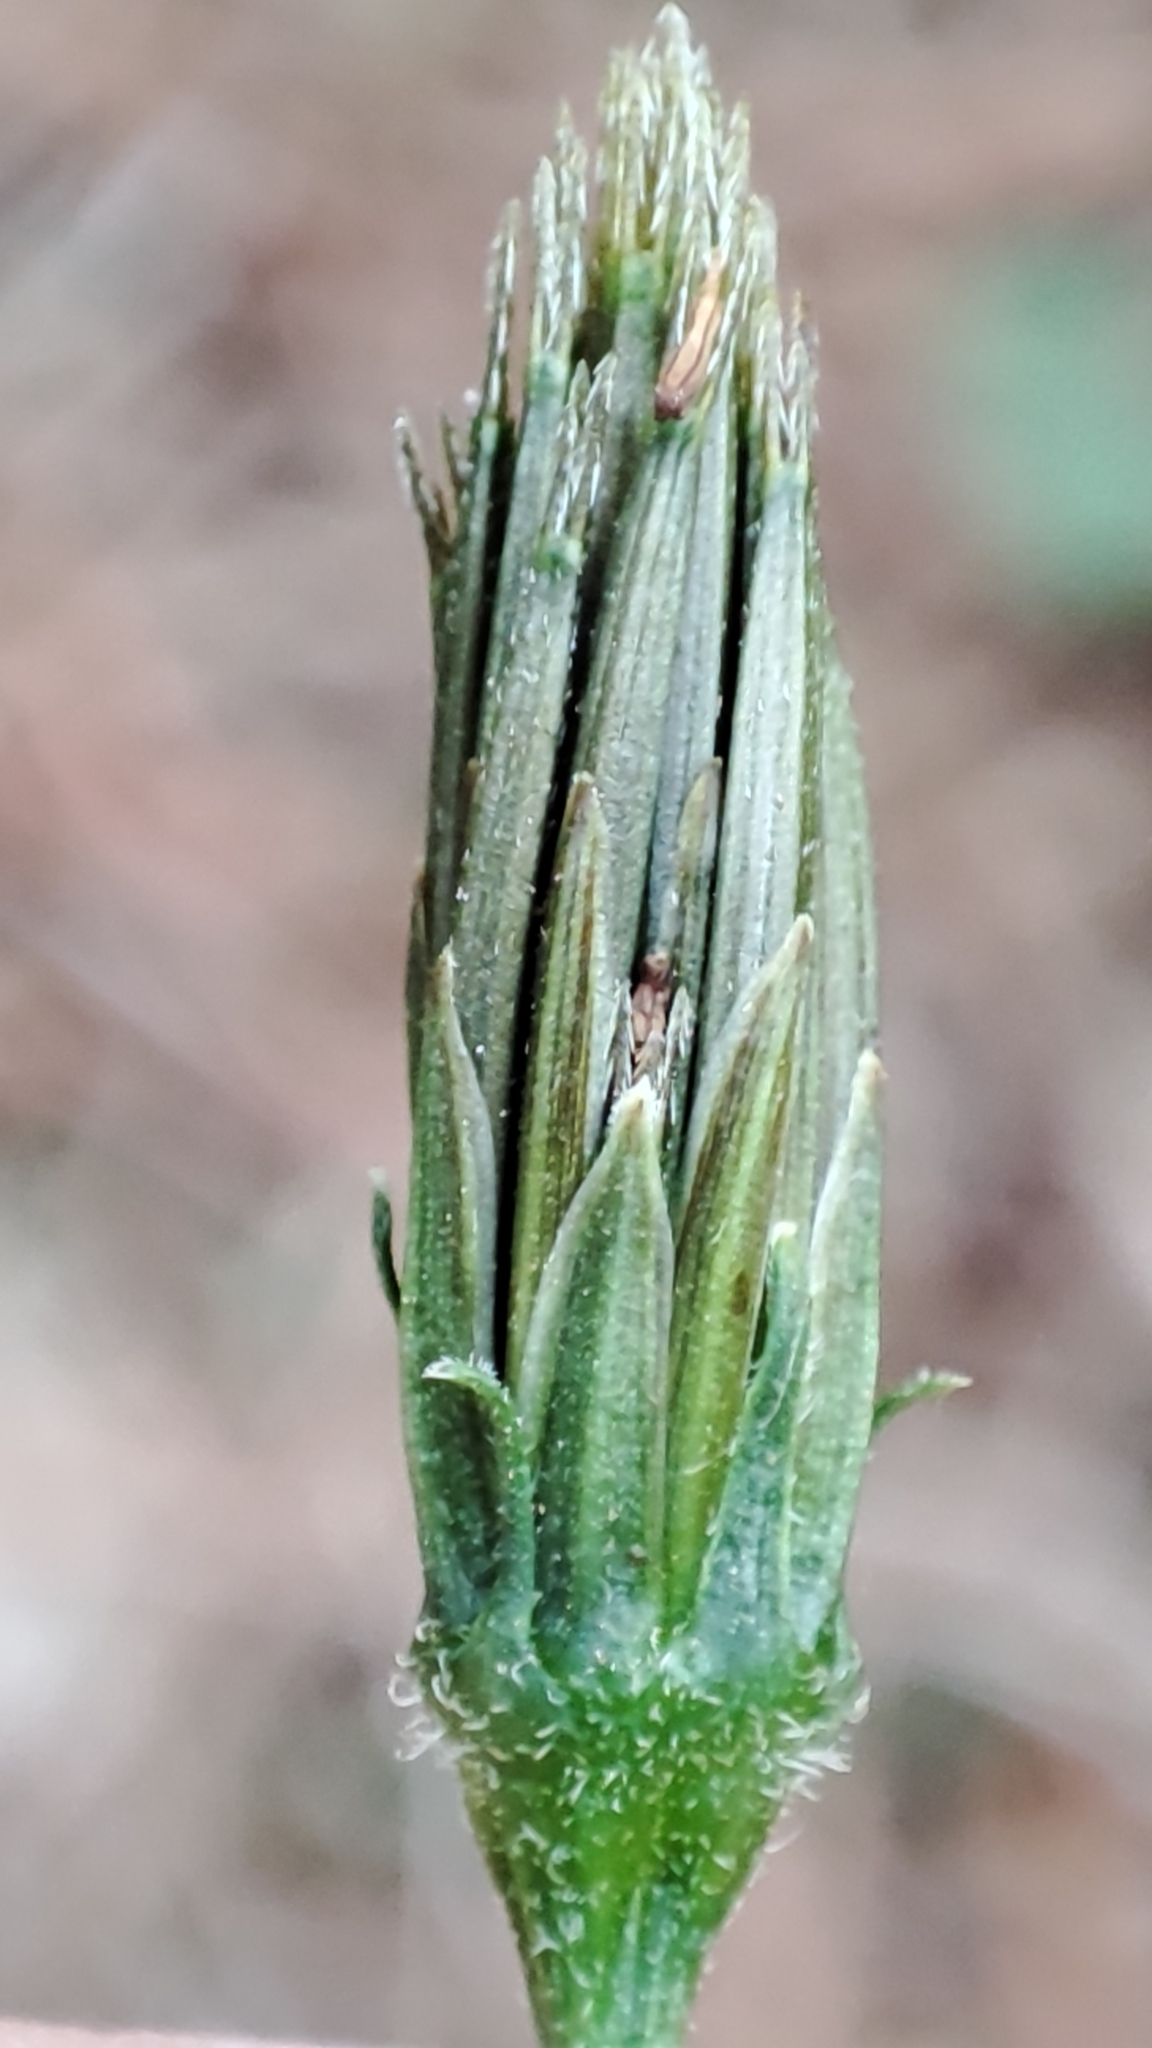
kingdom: Plantae
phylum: Tracheophyta
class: Magnoliopsida
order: Asterales
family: Asteraceae
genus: Bidens
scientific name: Bidens subalternans
